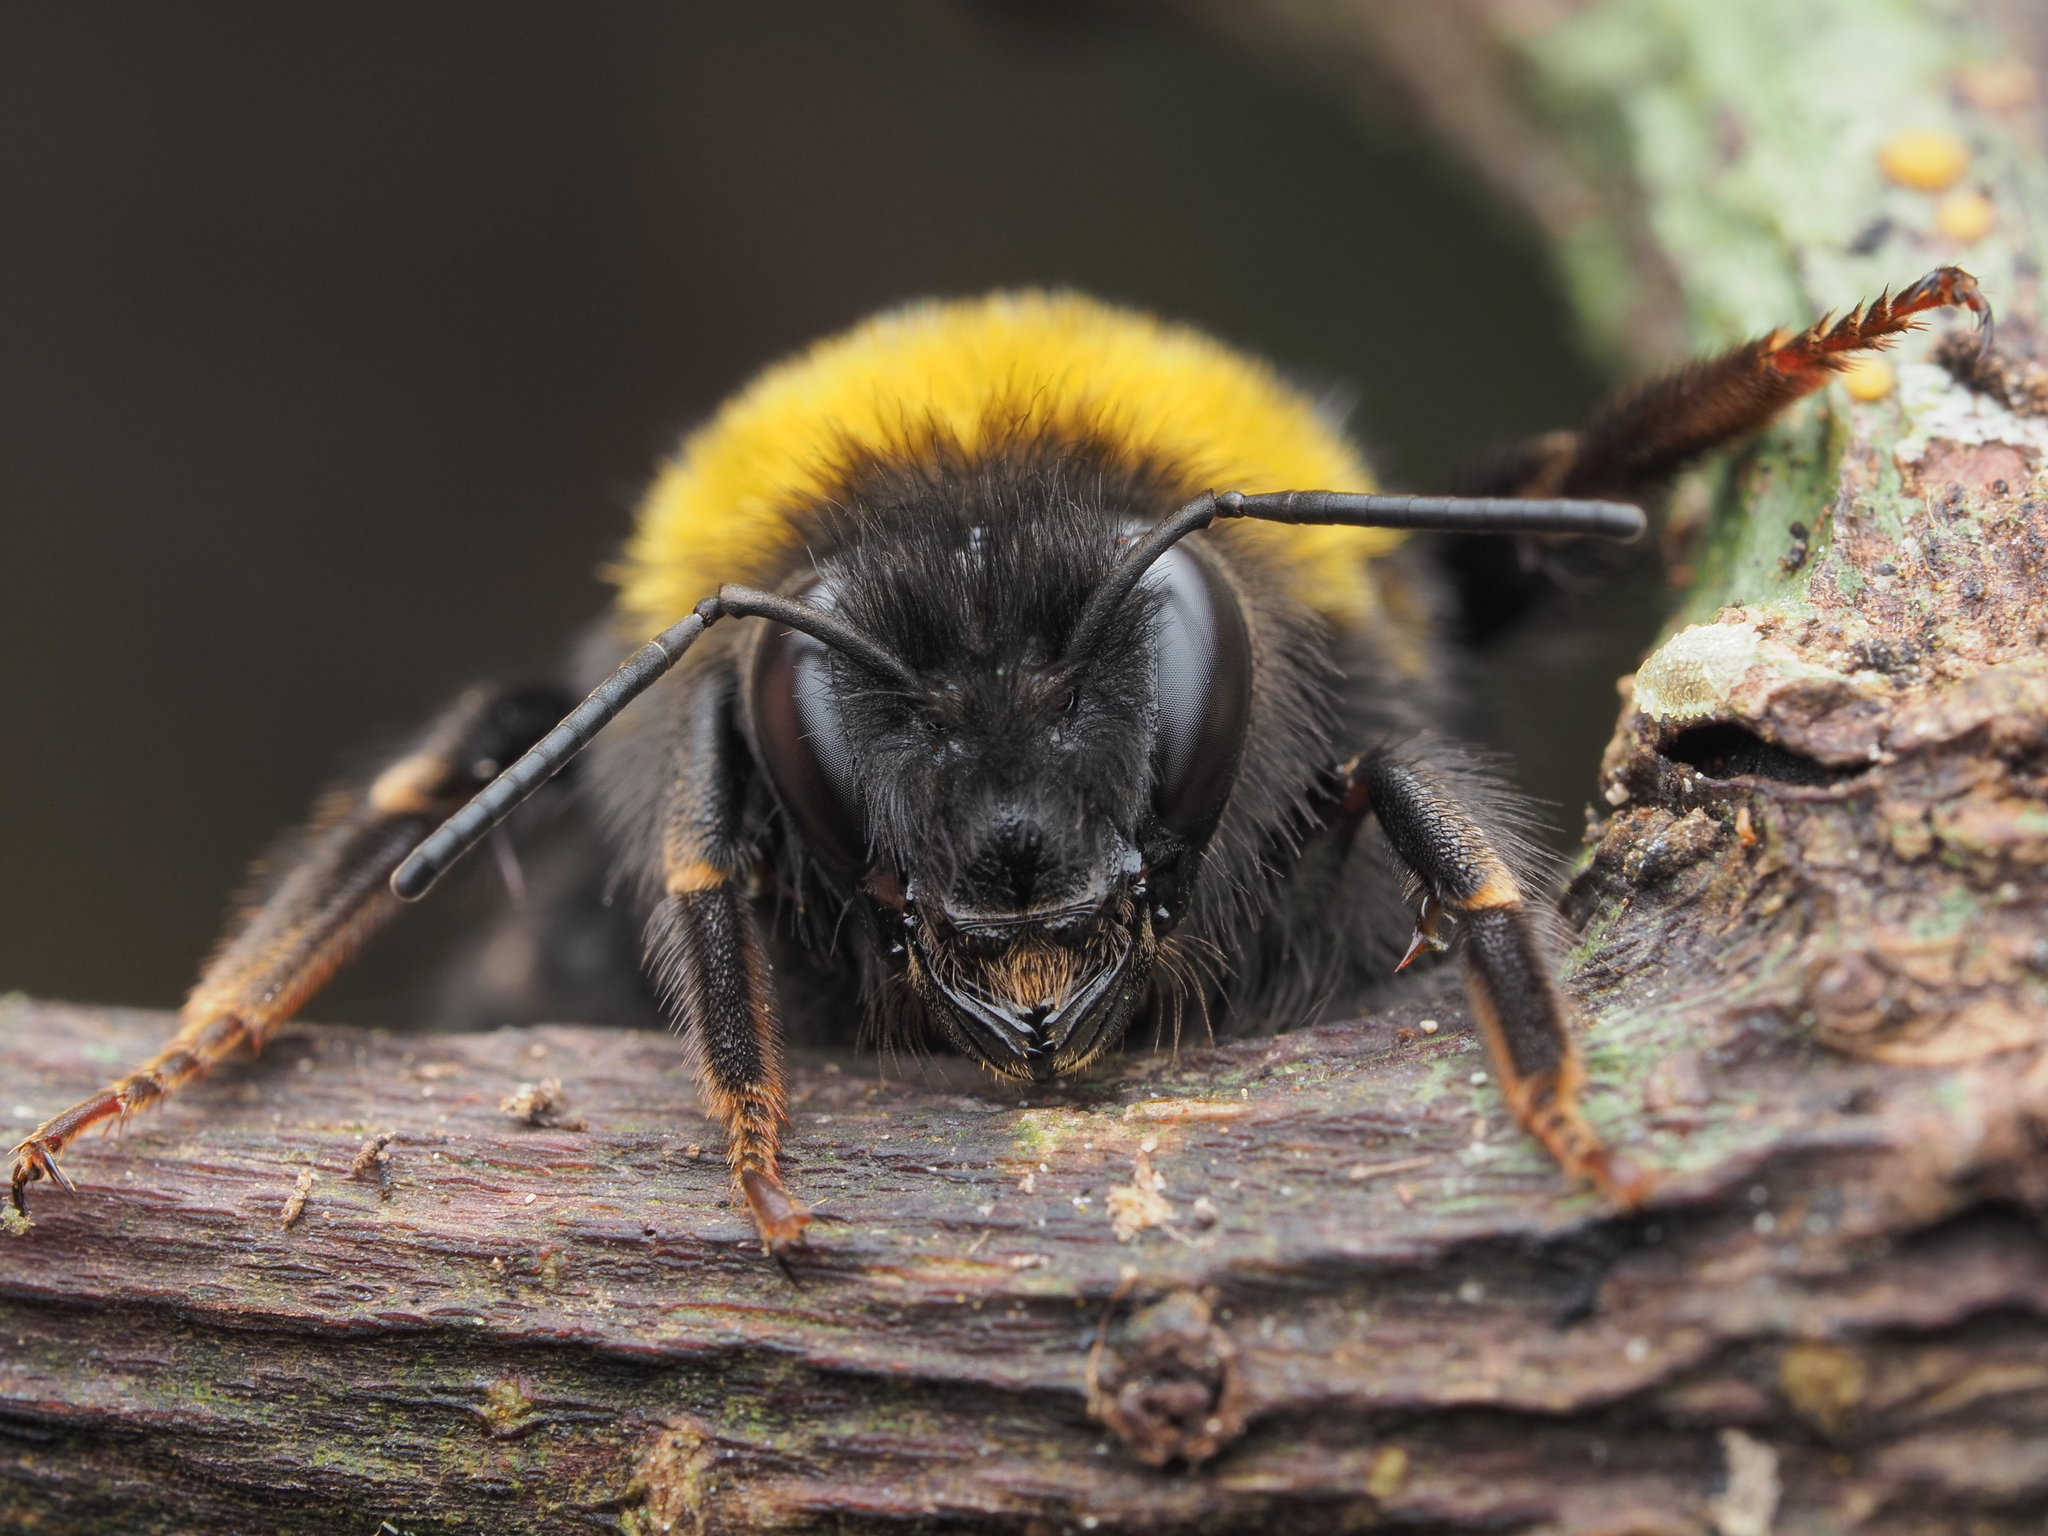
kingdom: Animalia
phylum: Arthropoda
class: Insecta
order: Hymenoptera
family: Apidae
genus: Bombus
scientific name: Bombus terrestris
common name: Buff-tailed bumblebee
